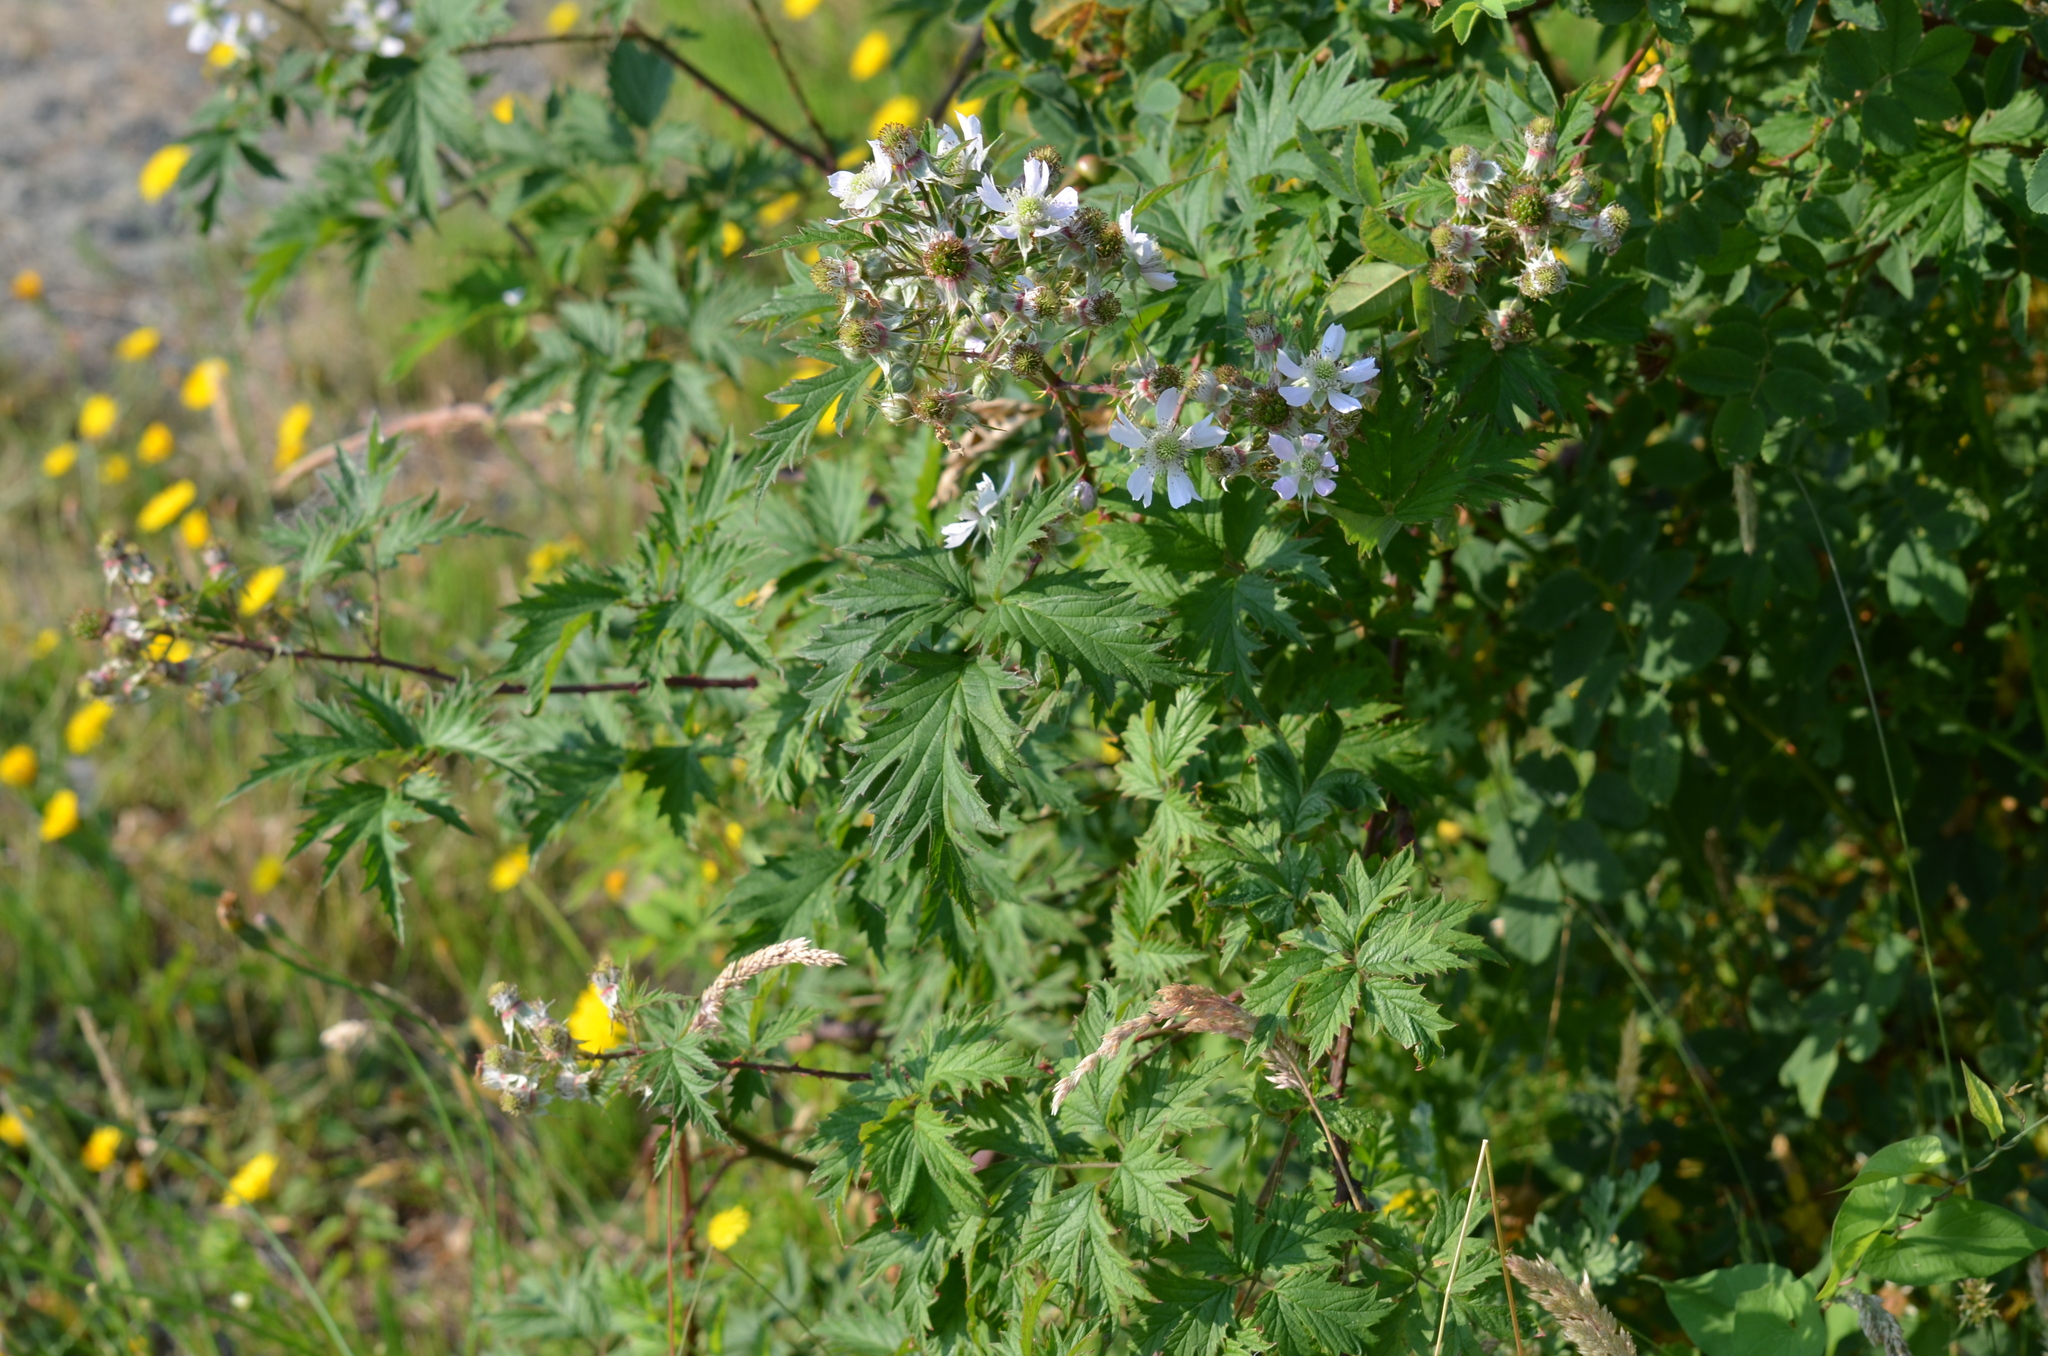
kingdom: Plantae
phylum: Tracheophyta
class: Magnoliopsida
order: Rosales
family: Rosaceae
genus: Rubus
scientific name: Rubus laciniatus
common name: Evergreen blackberry
